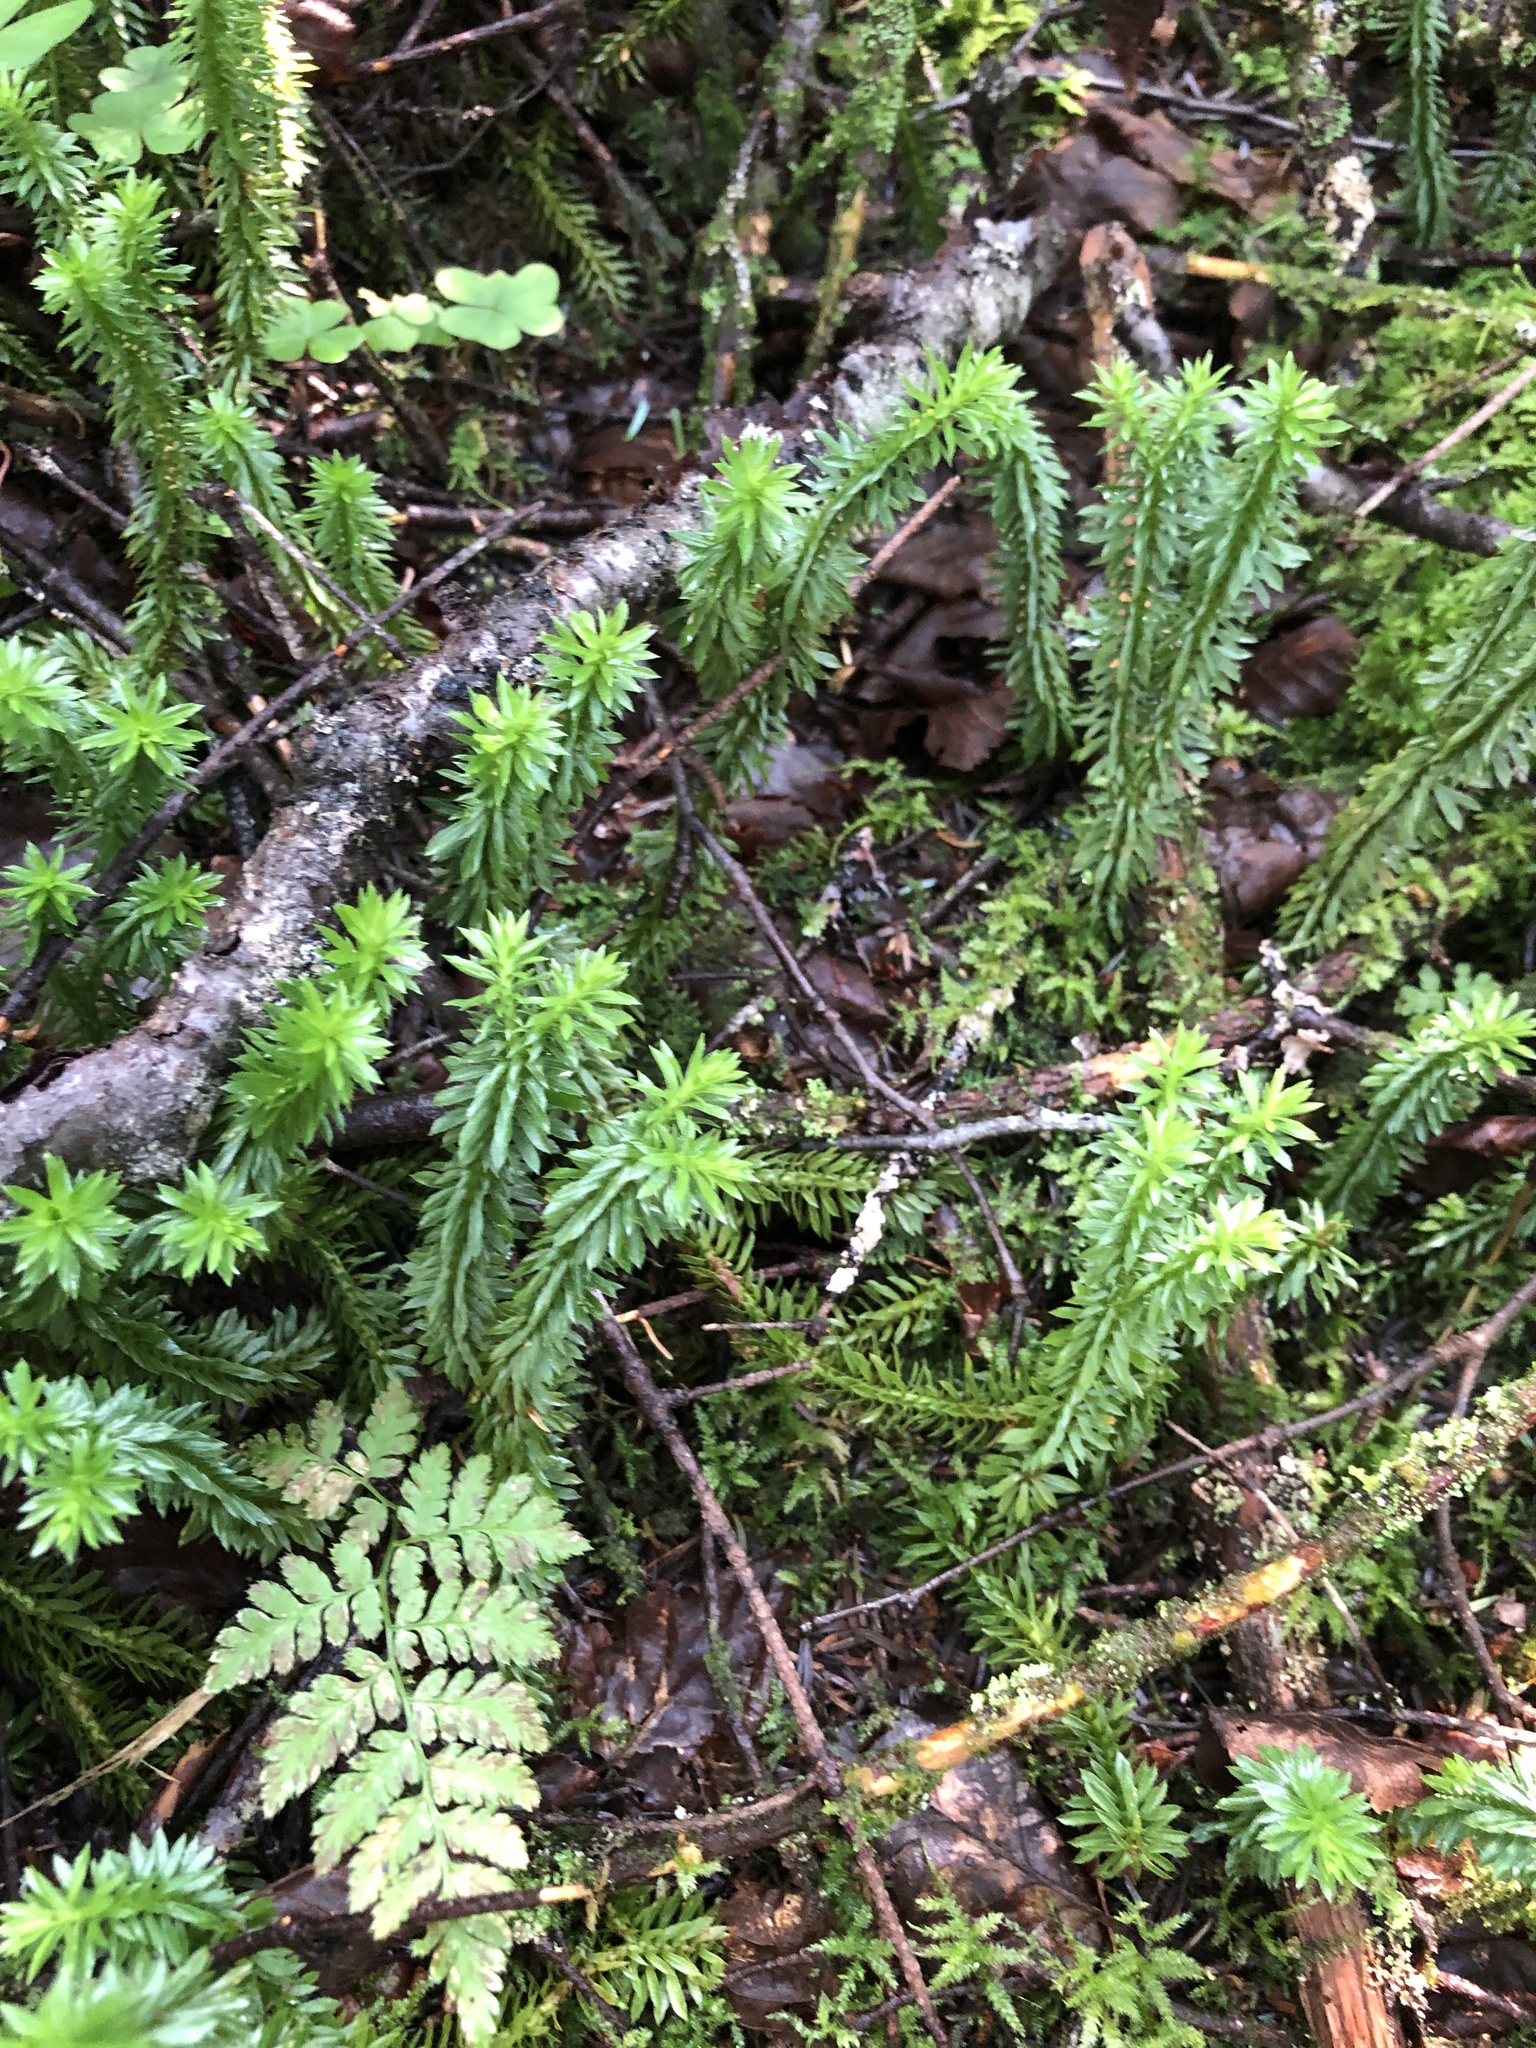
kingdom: Plantae
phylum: Tracheophyta
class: Lycopodiopsida
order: Lycopodiales
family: Lycopodiaceae
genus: Huperzia
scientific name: Huperzia lucidula
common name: Shining clubmoss
